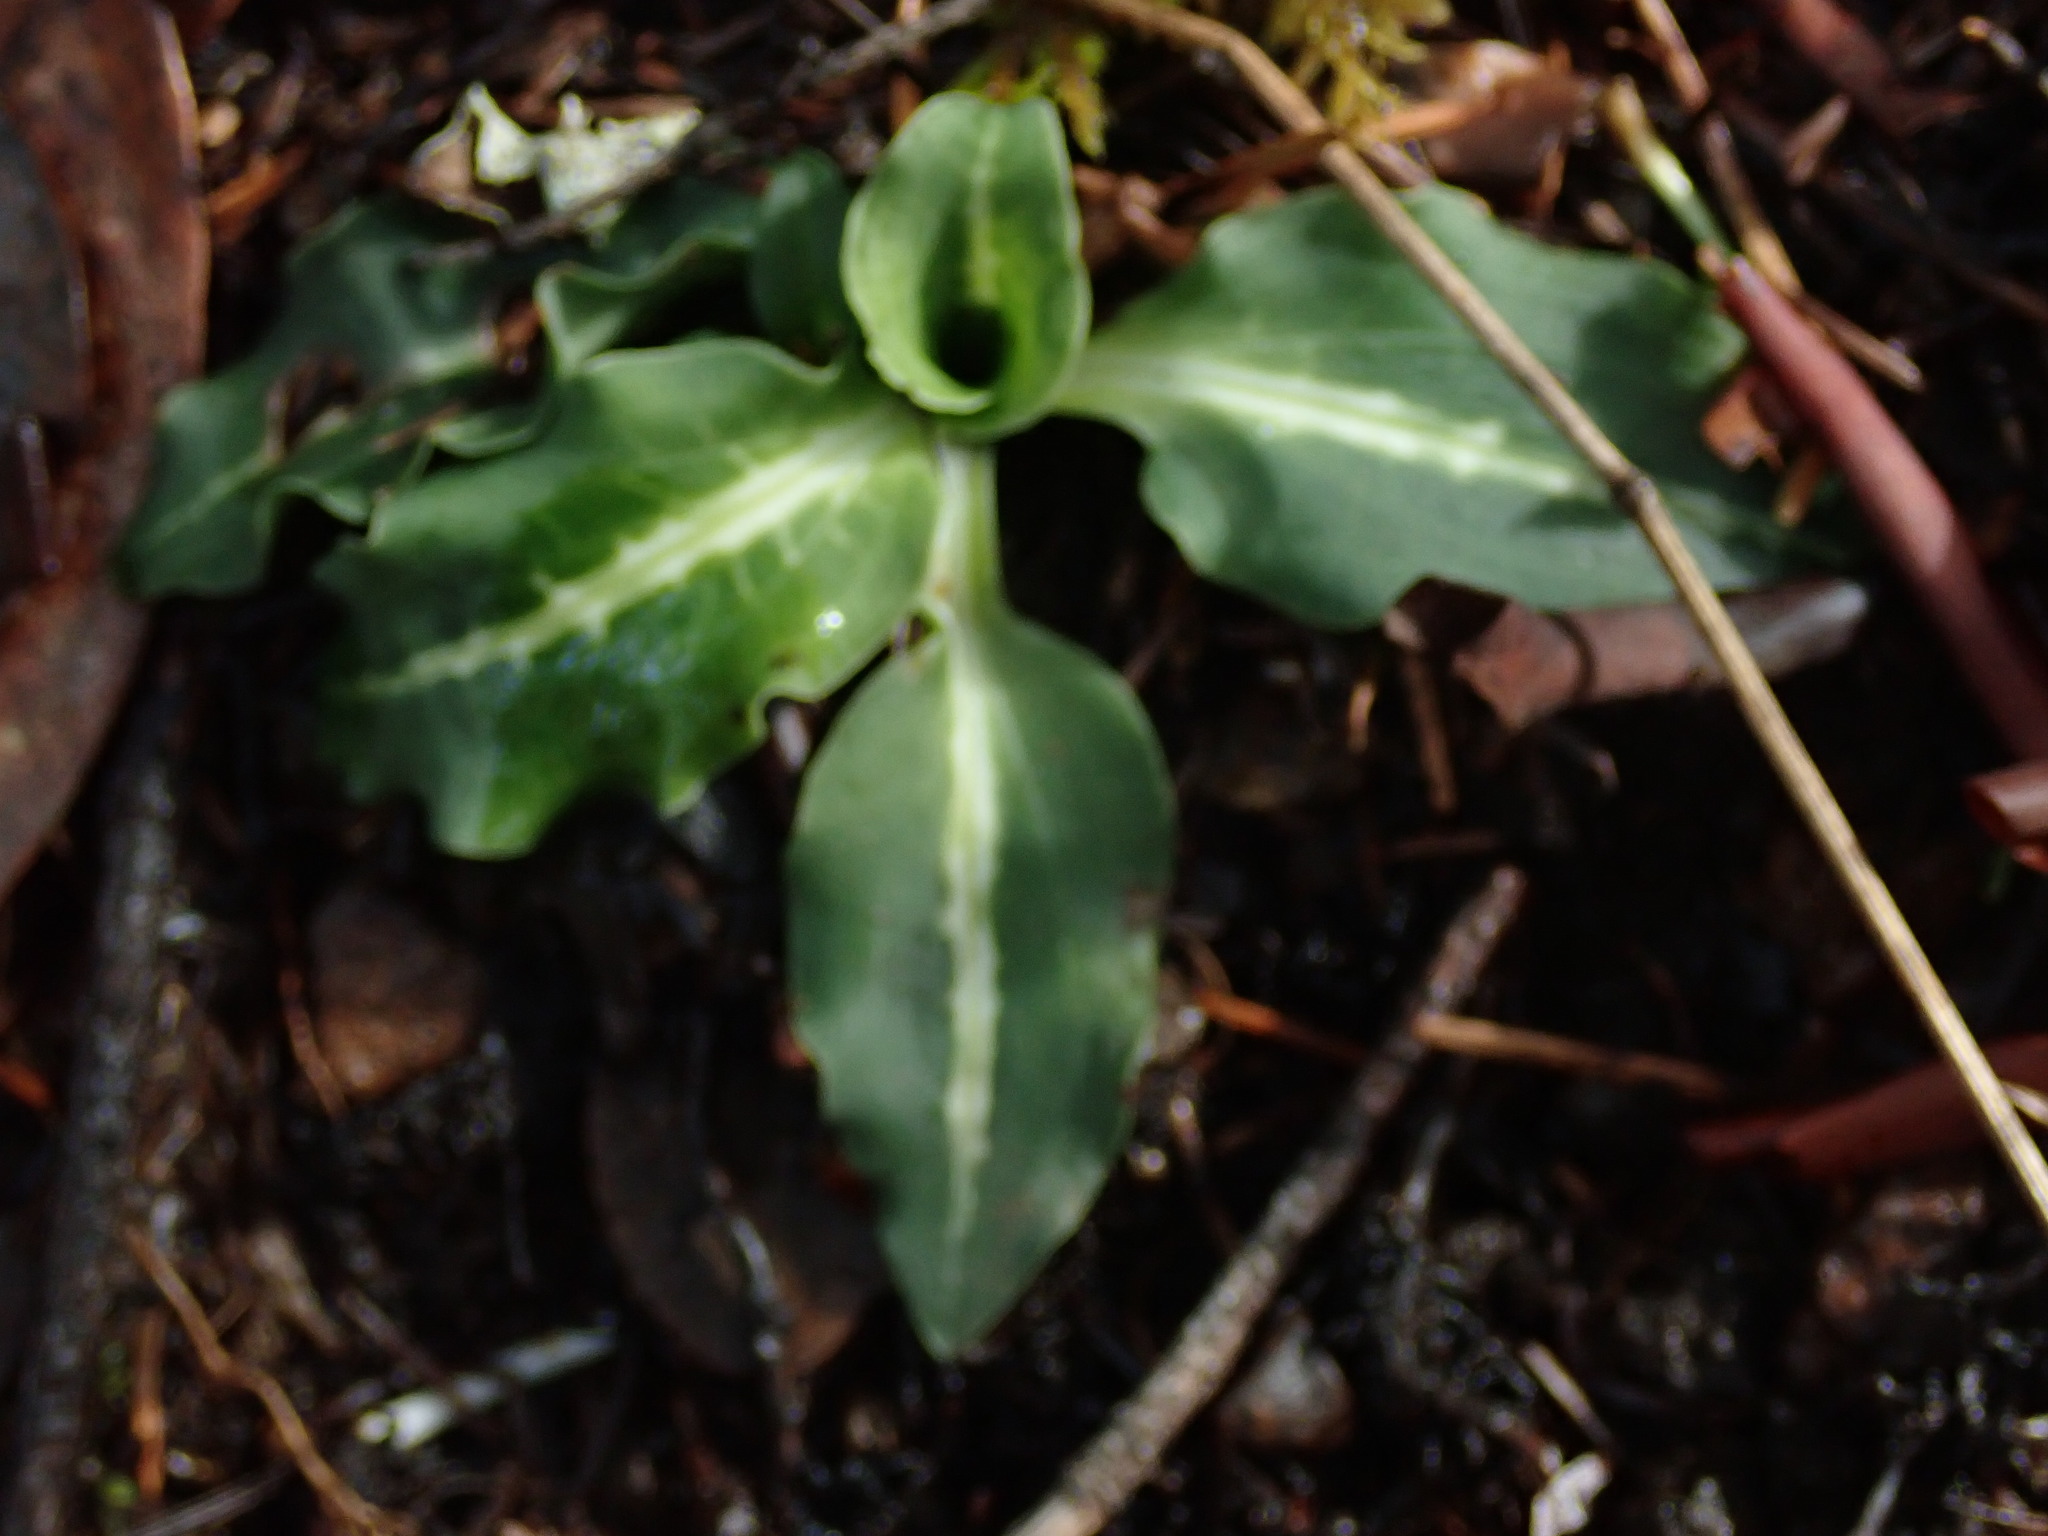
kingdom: Plantae
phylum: Tracheophyta
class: Liliopsida
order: Asparagales
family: Orchidaceae
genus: Goodyera
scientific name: Goodyera oblongifolia
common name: Giant rattlesnake-plantain
